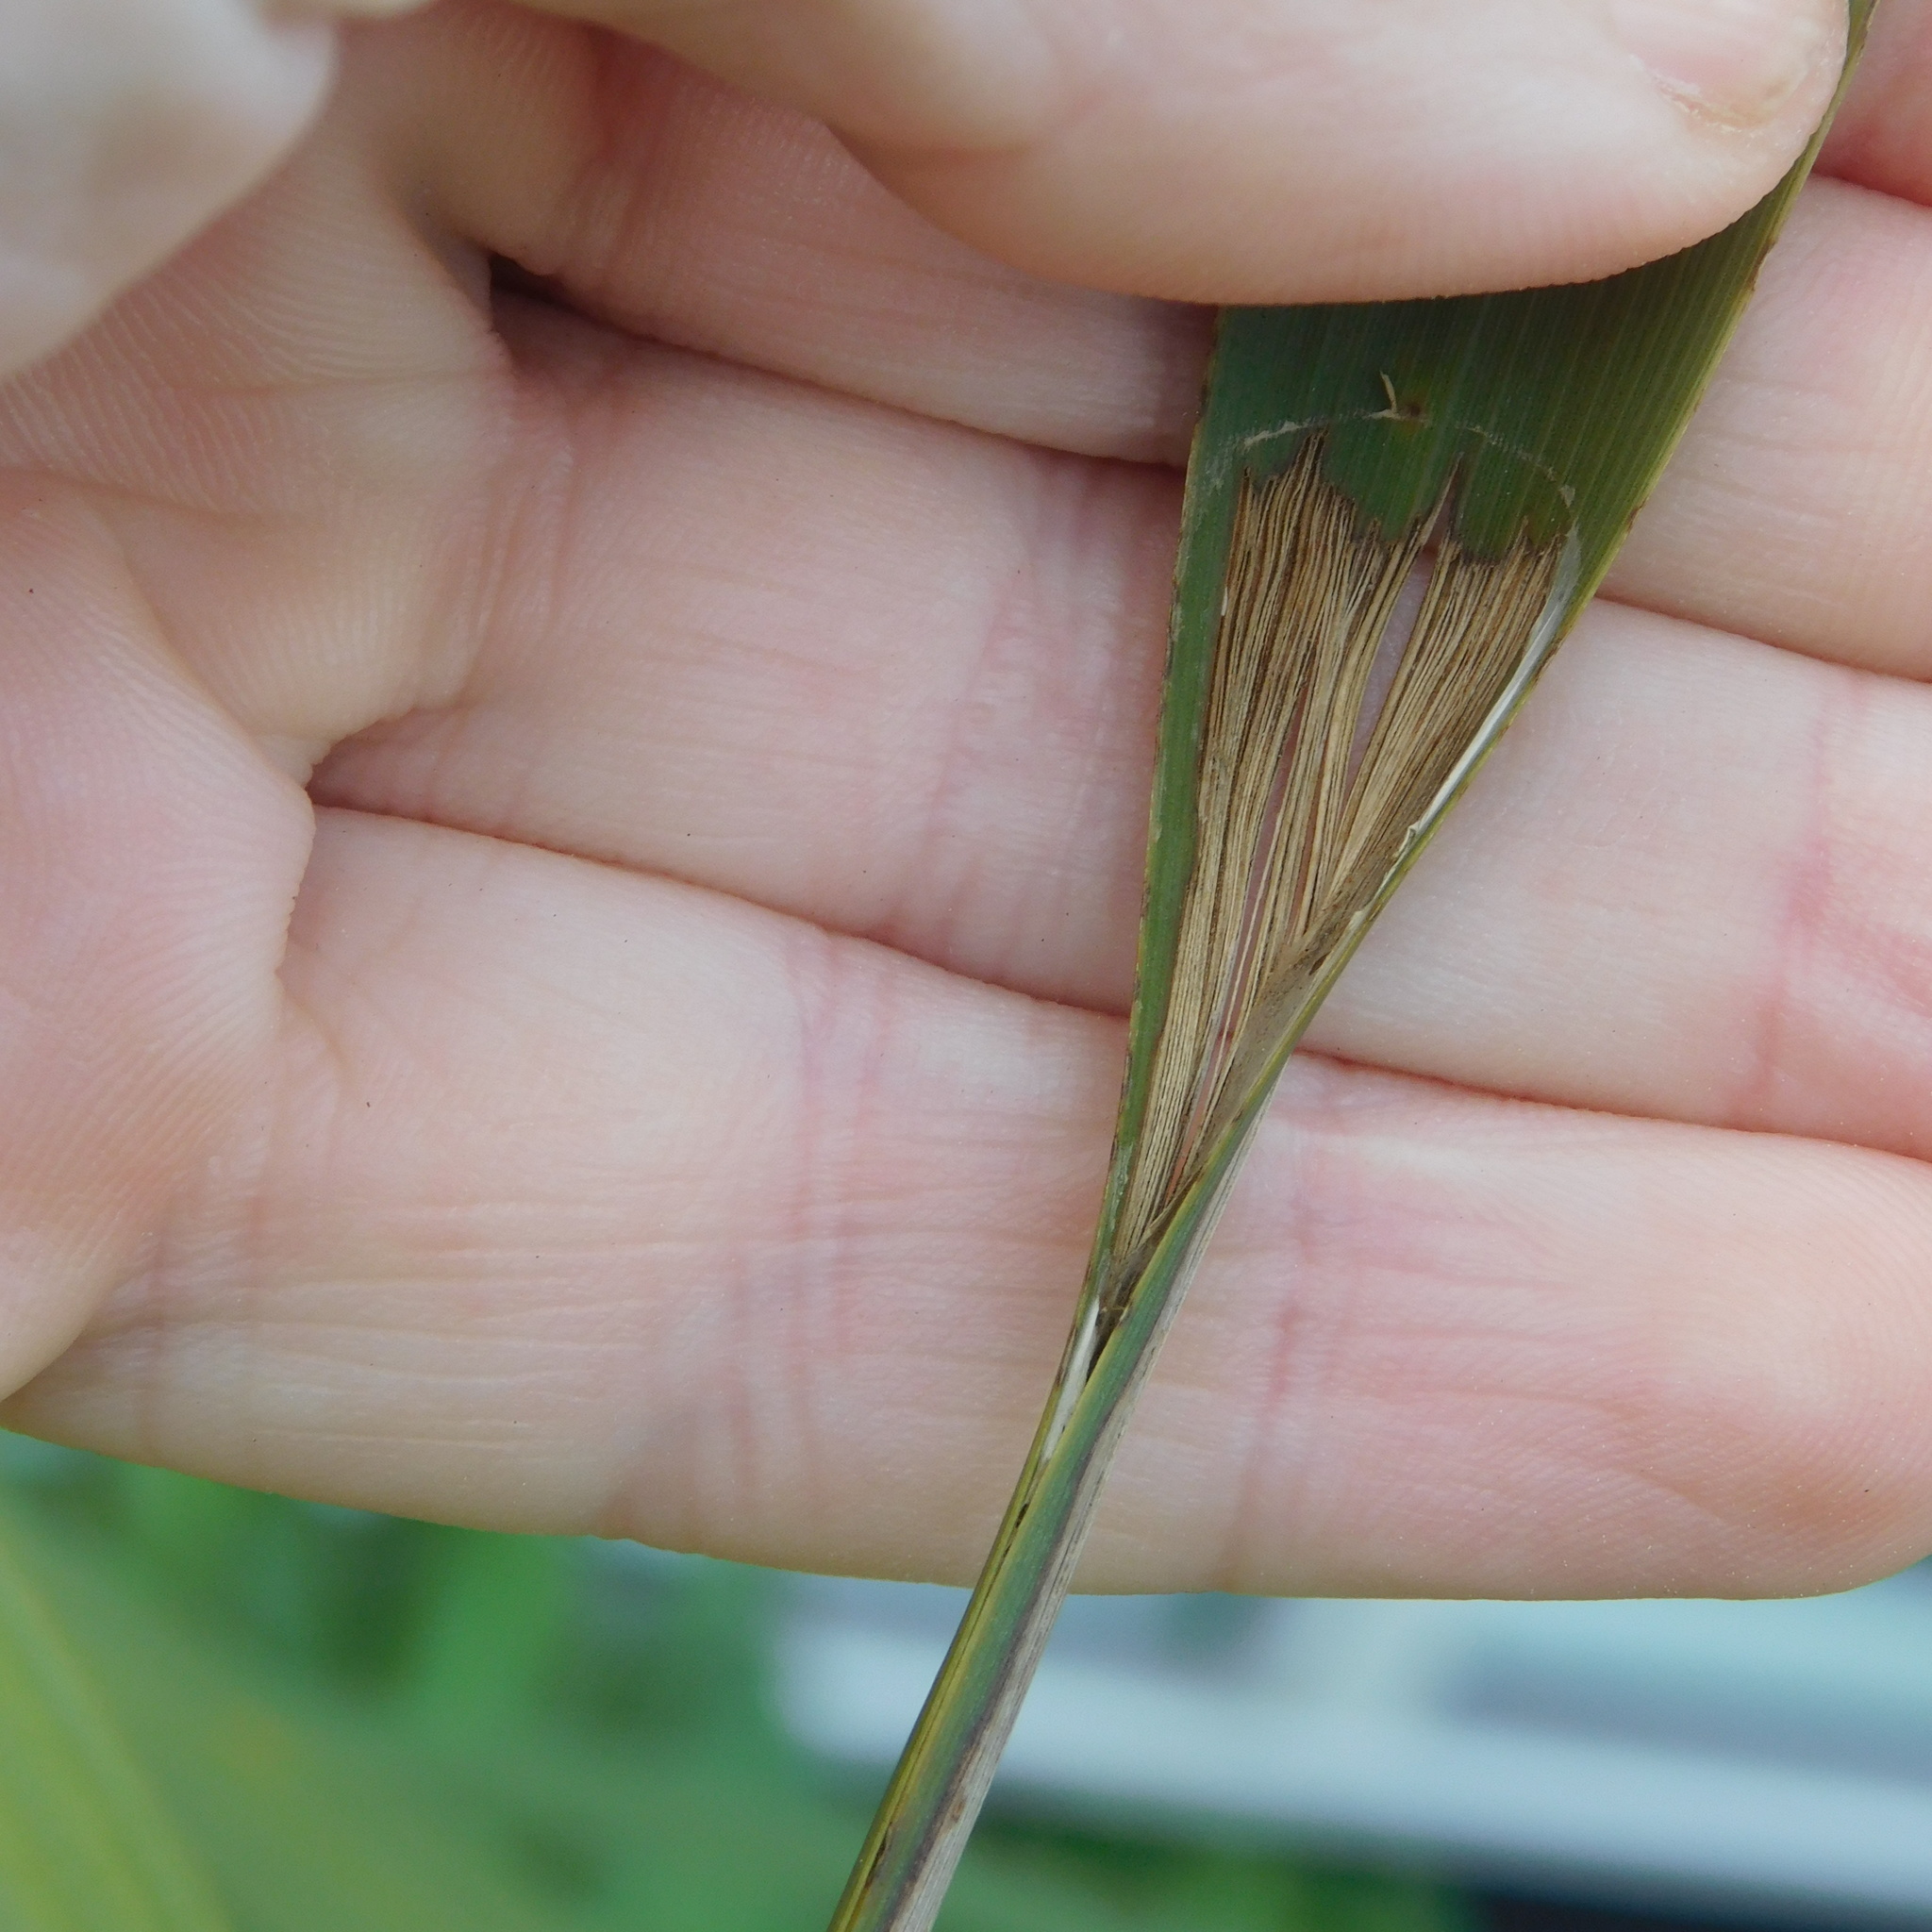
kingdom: Animalia
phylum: Arthropoda
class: Insecta
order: Lepidoptera
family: Tortricidae
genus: Catamacta
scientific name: Catamacta lotinana
